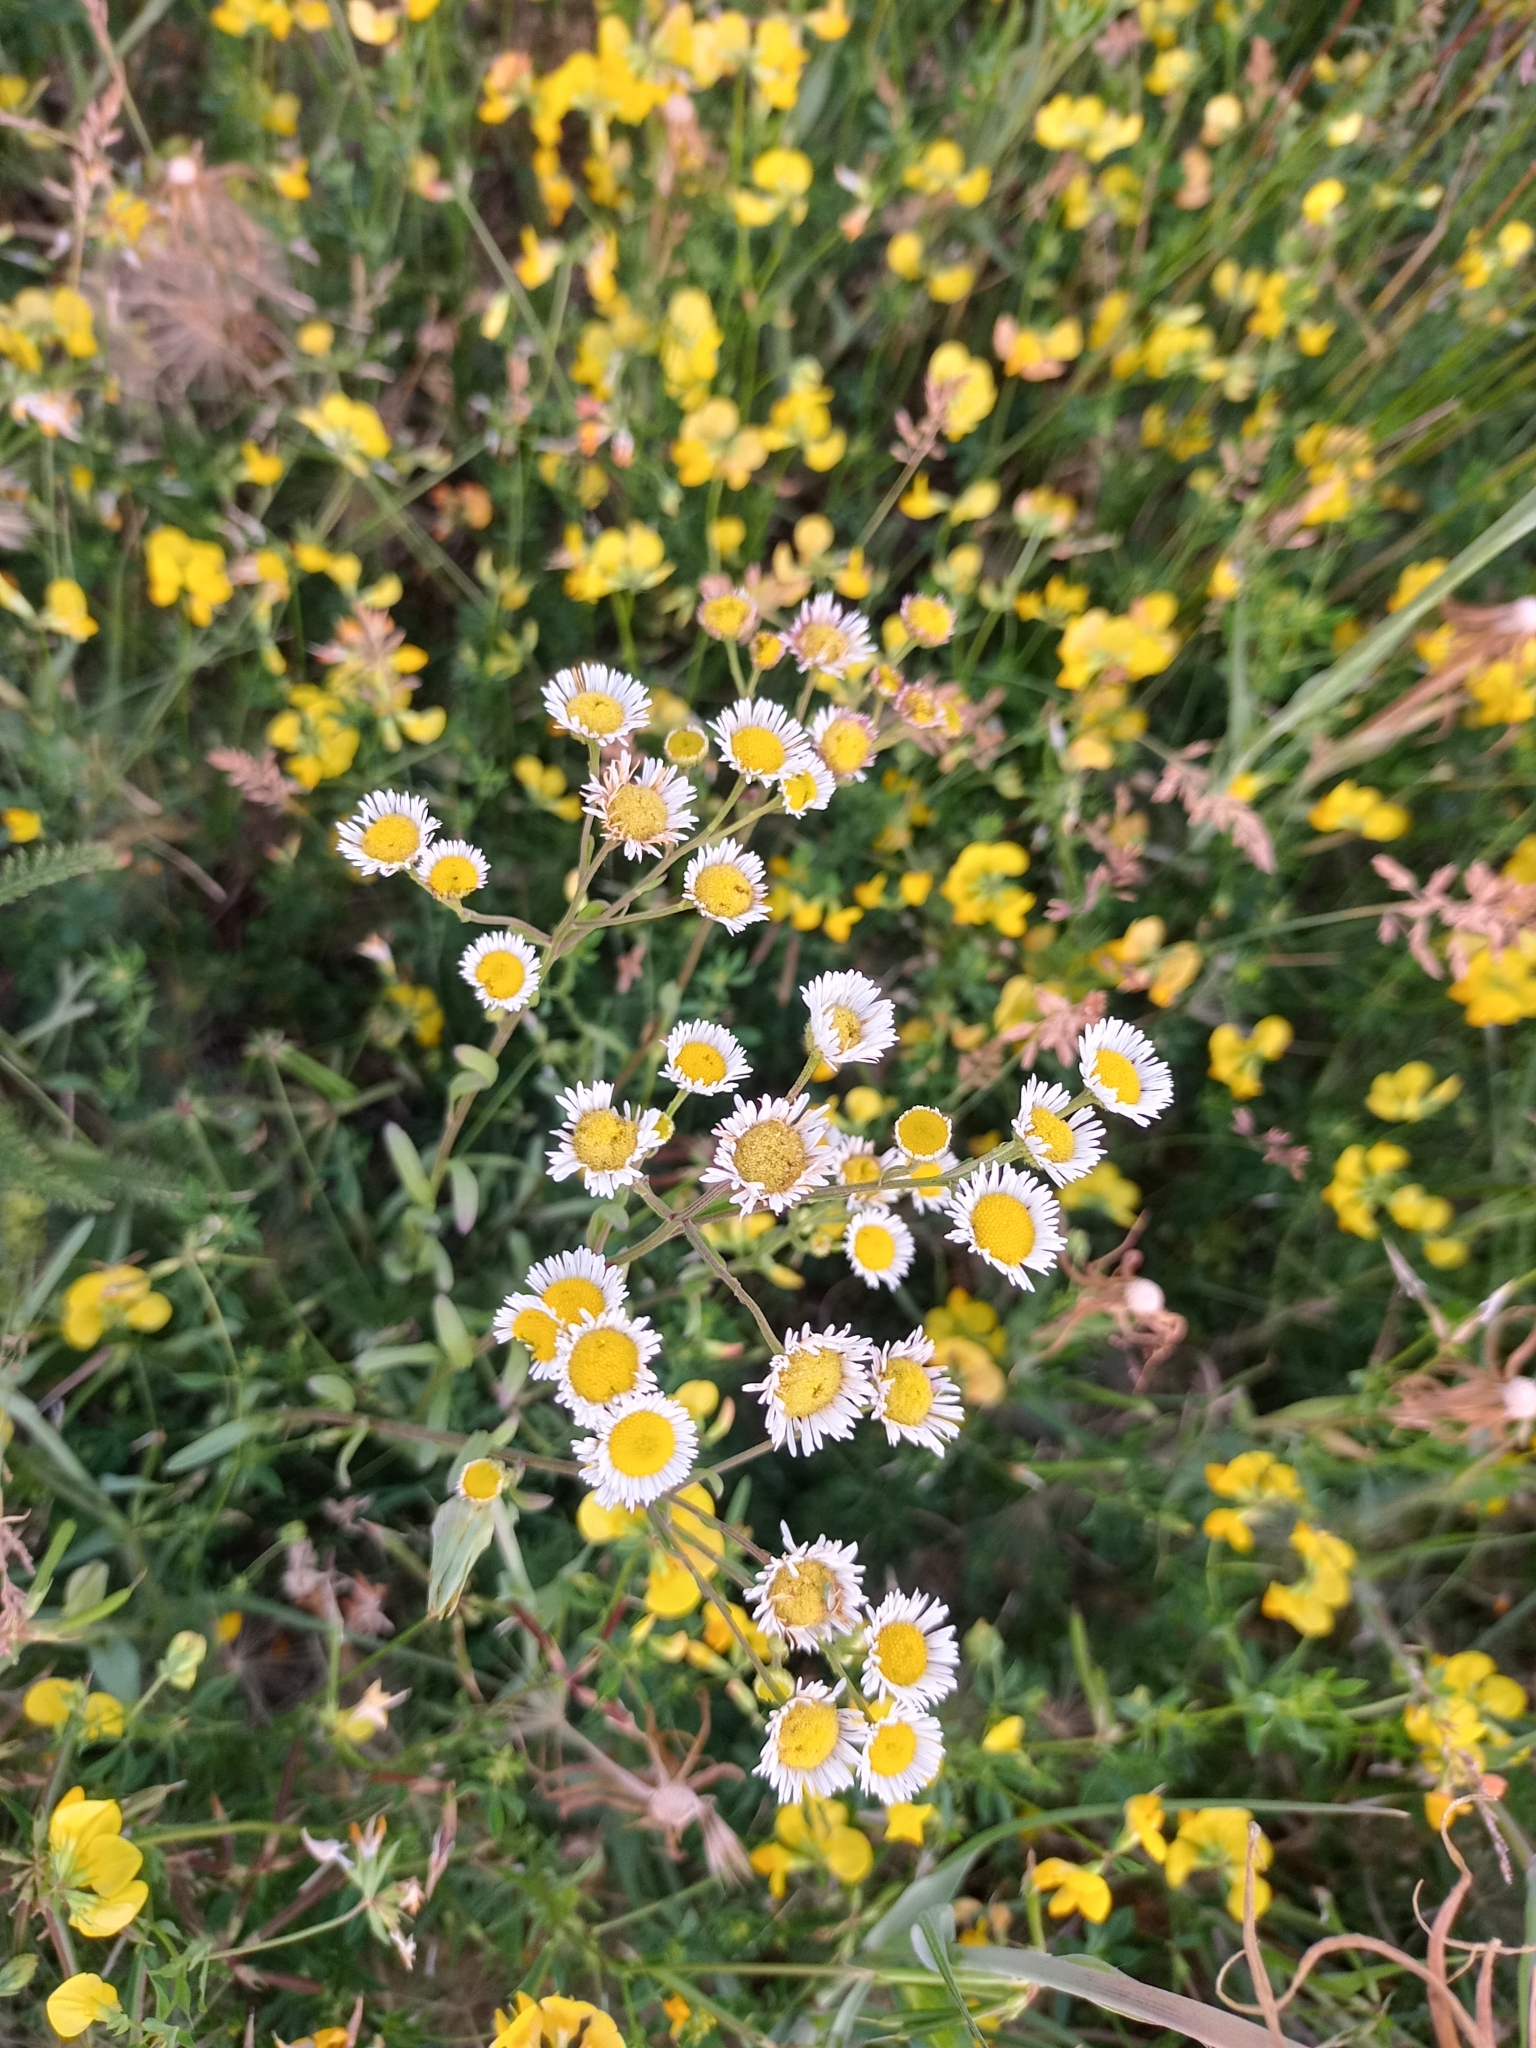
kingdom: Plantae
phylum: Tracheophyta
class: Magnoliopsida
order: Asterales
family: Asteraceae
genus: Erigeron
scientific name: Erigeron strigosus
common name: Common eastern fleabane
